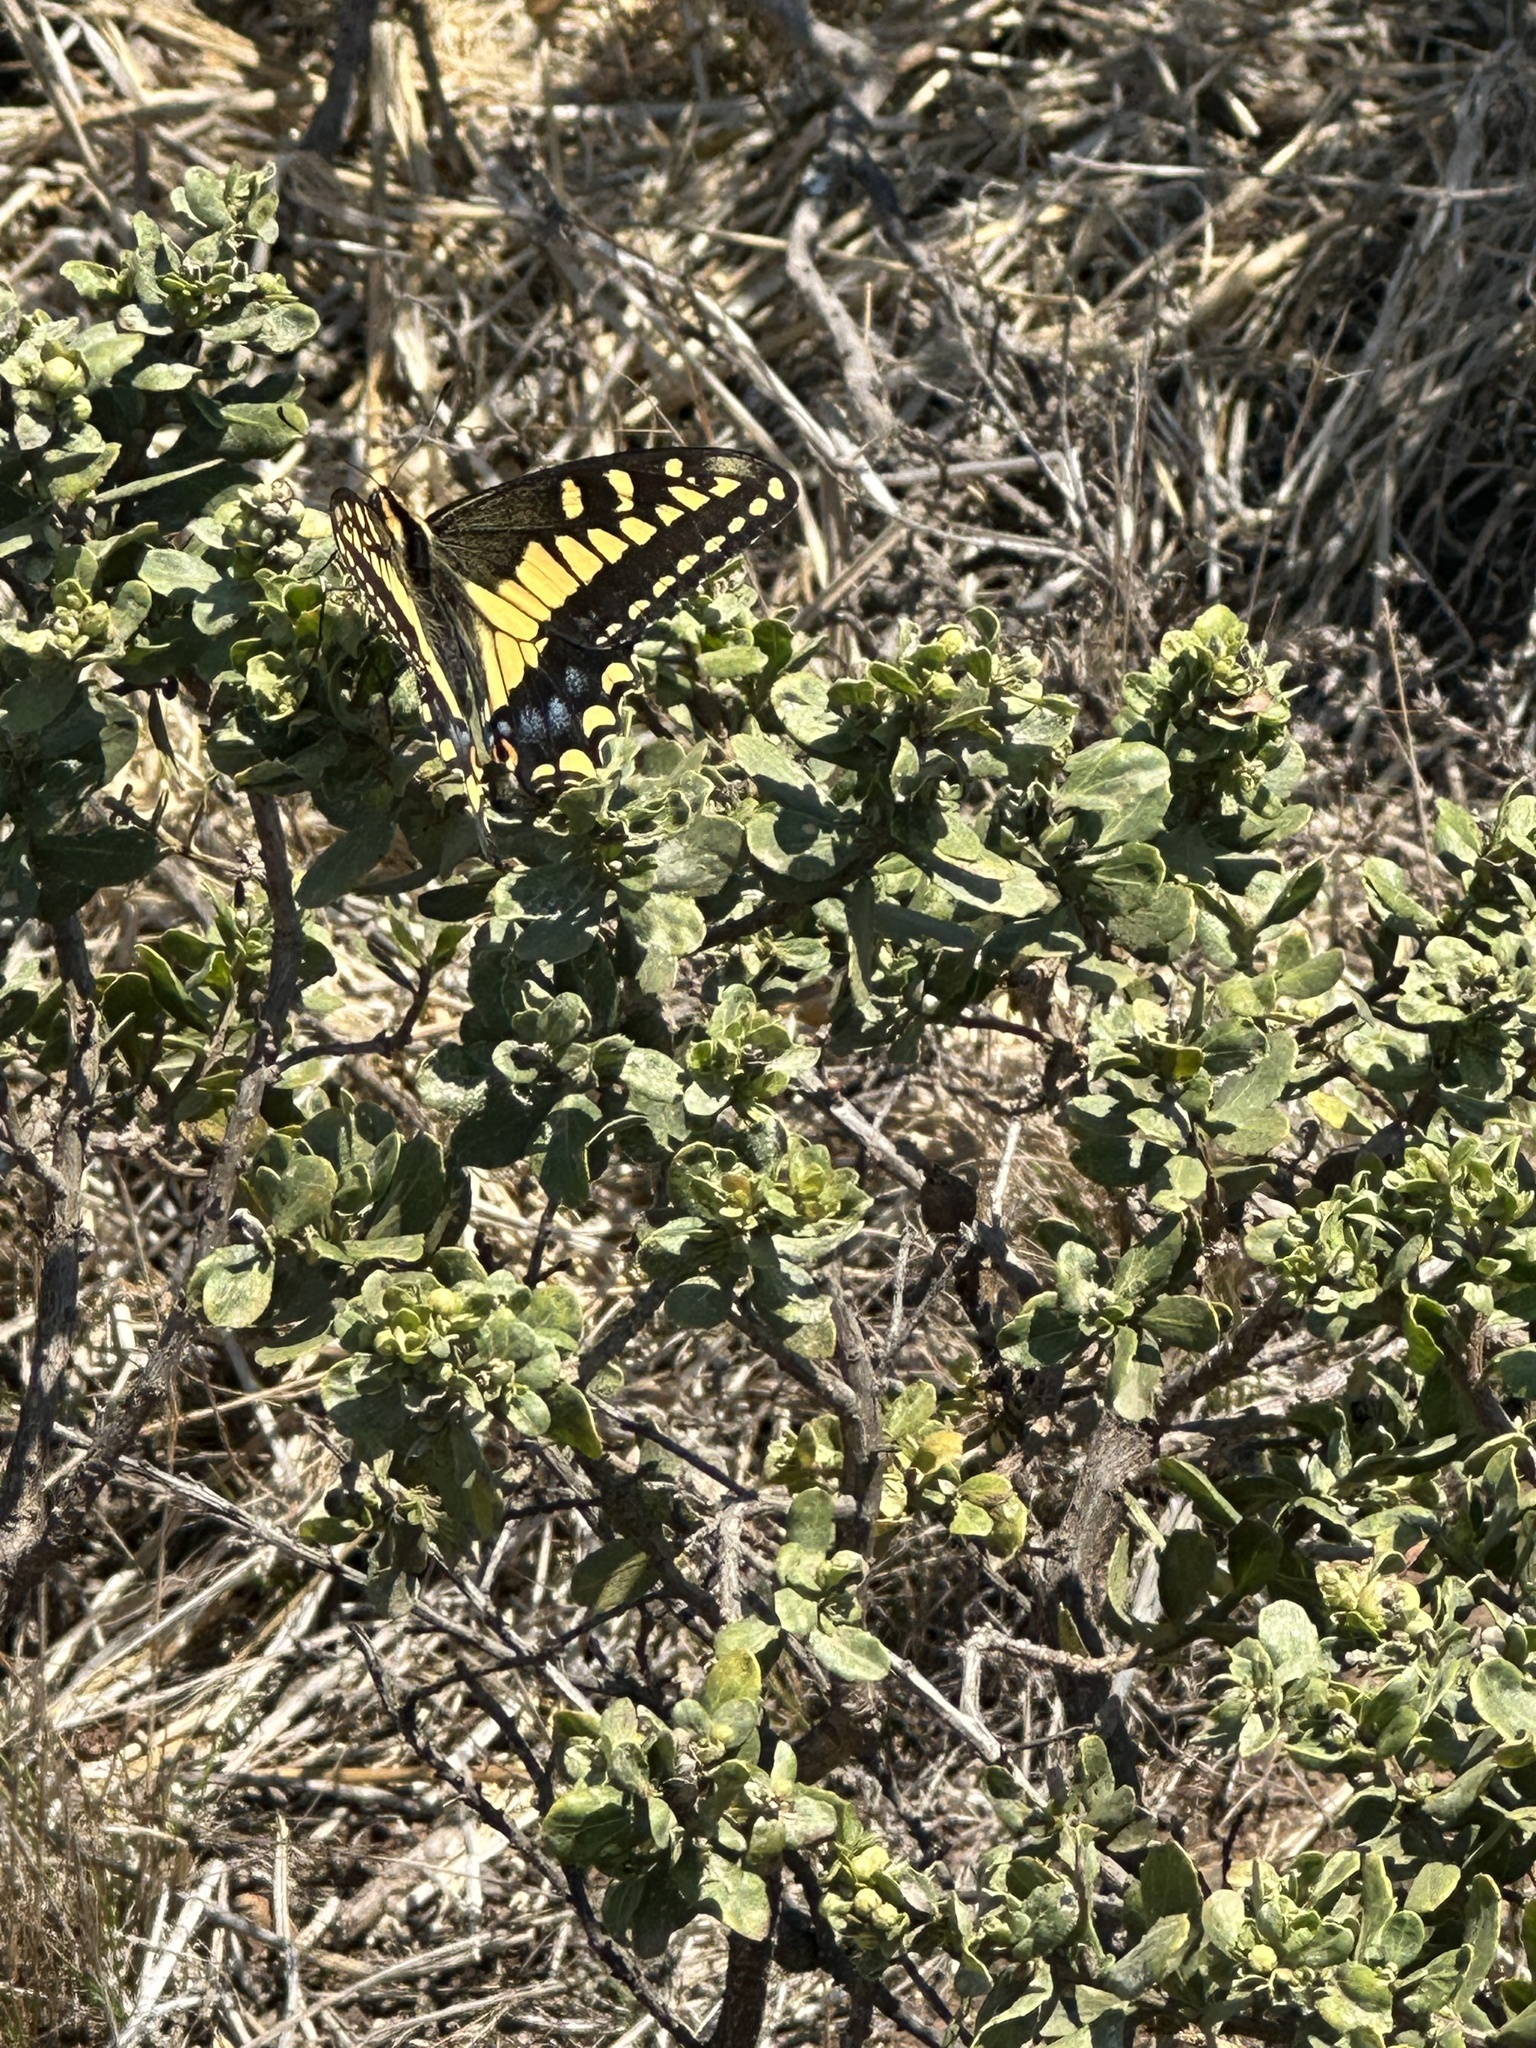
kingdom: Animalia
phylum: Arthropoda
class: Insecta
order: Lepidoptera
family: Papilionidae
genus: Papilio
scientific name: Papilio zelicaon
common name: Anise swallowtail
